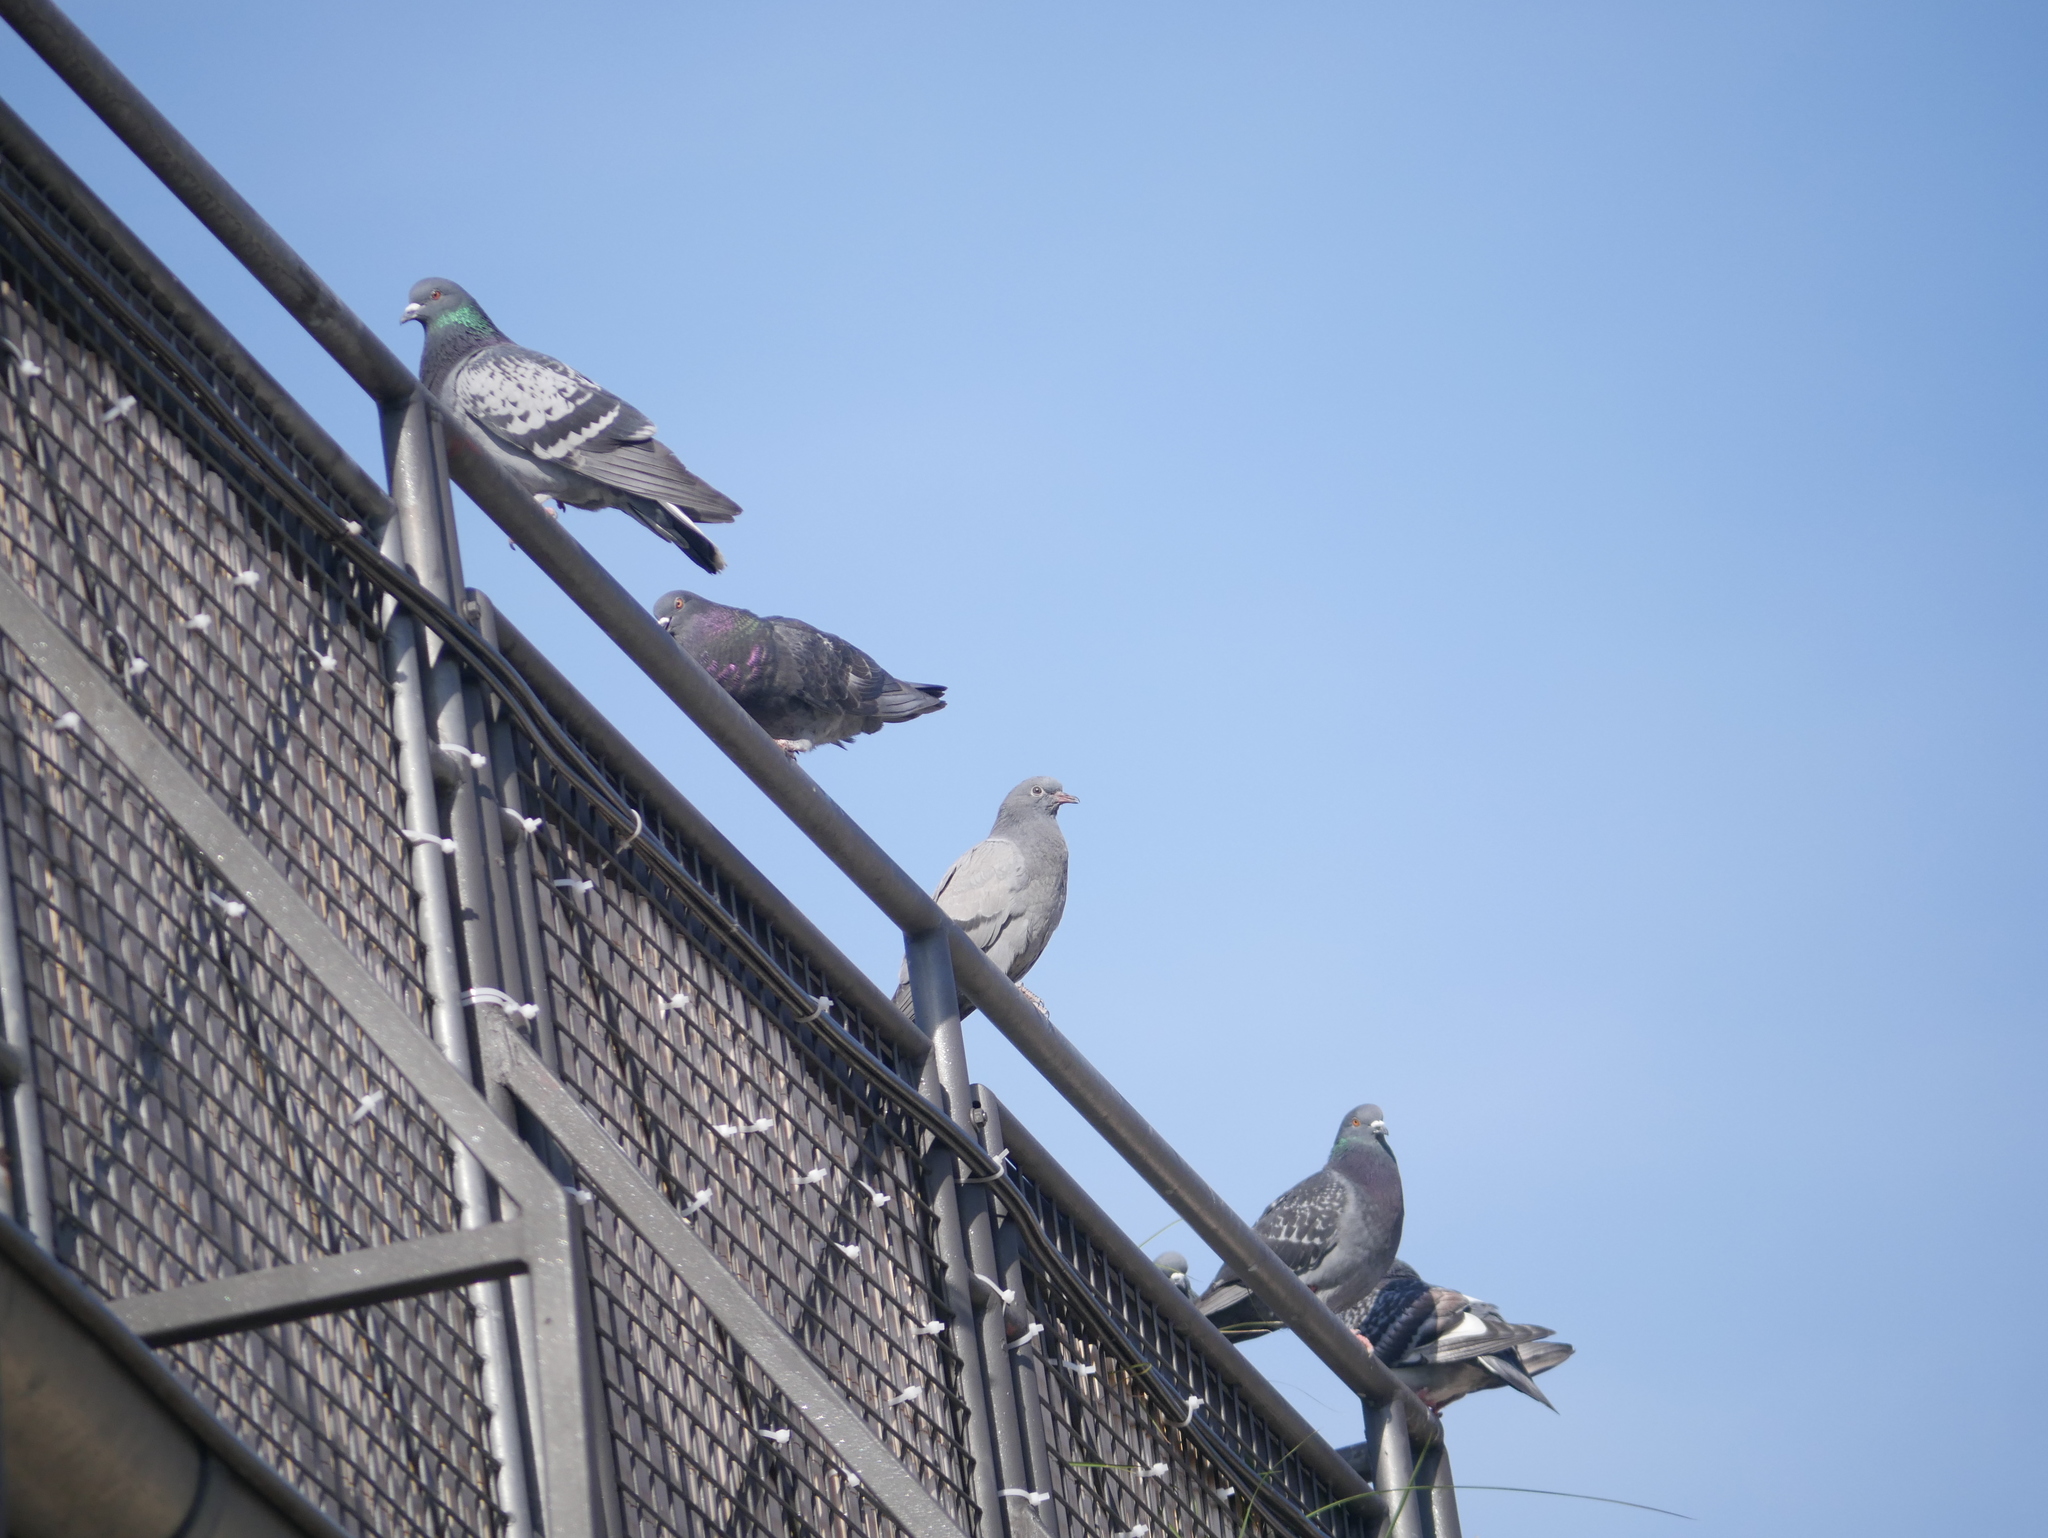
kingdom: Animalia
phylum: Chordata
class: Aves
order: Columbiformes
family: Columbidae
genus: Columba
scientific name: Columba livia
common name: Rock pigeon
